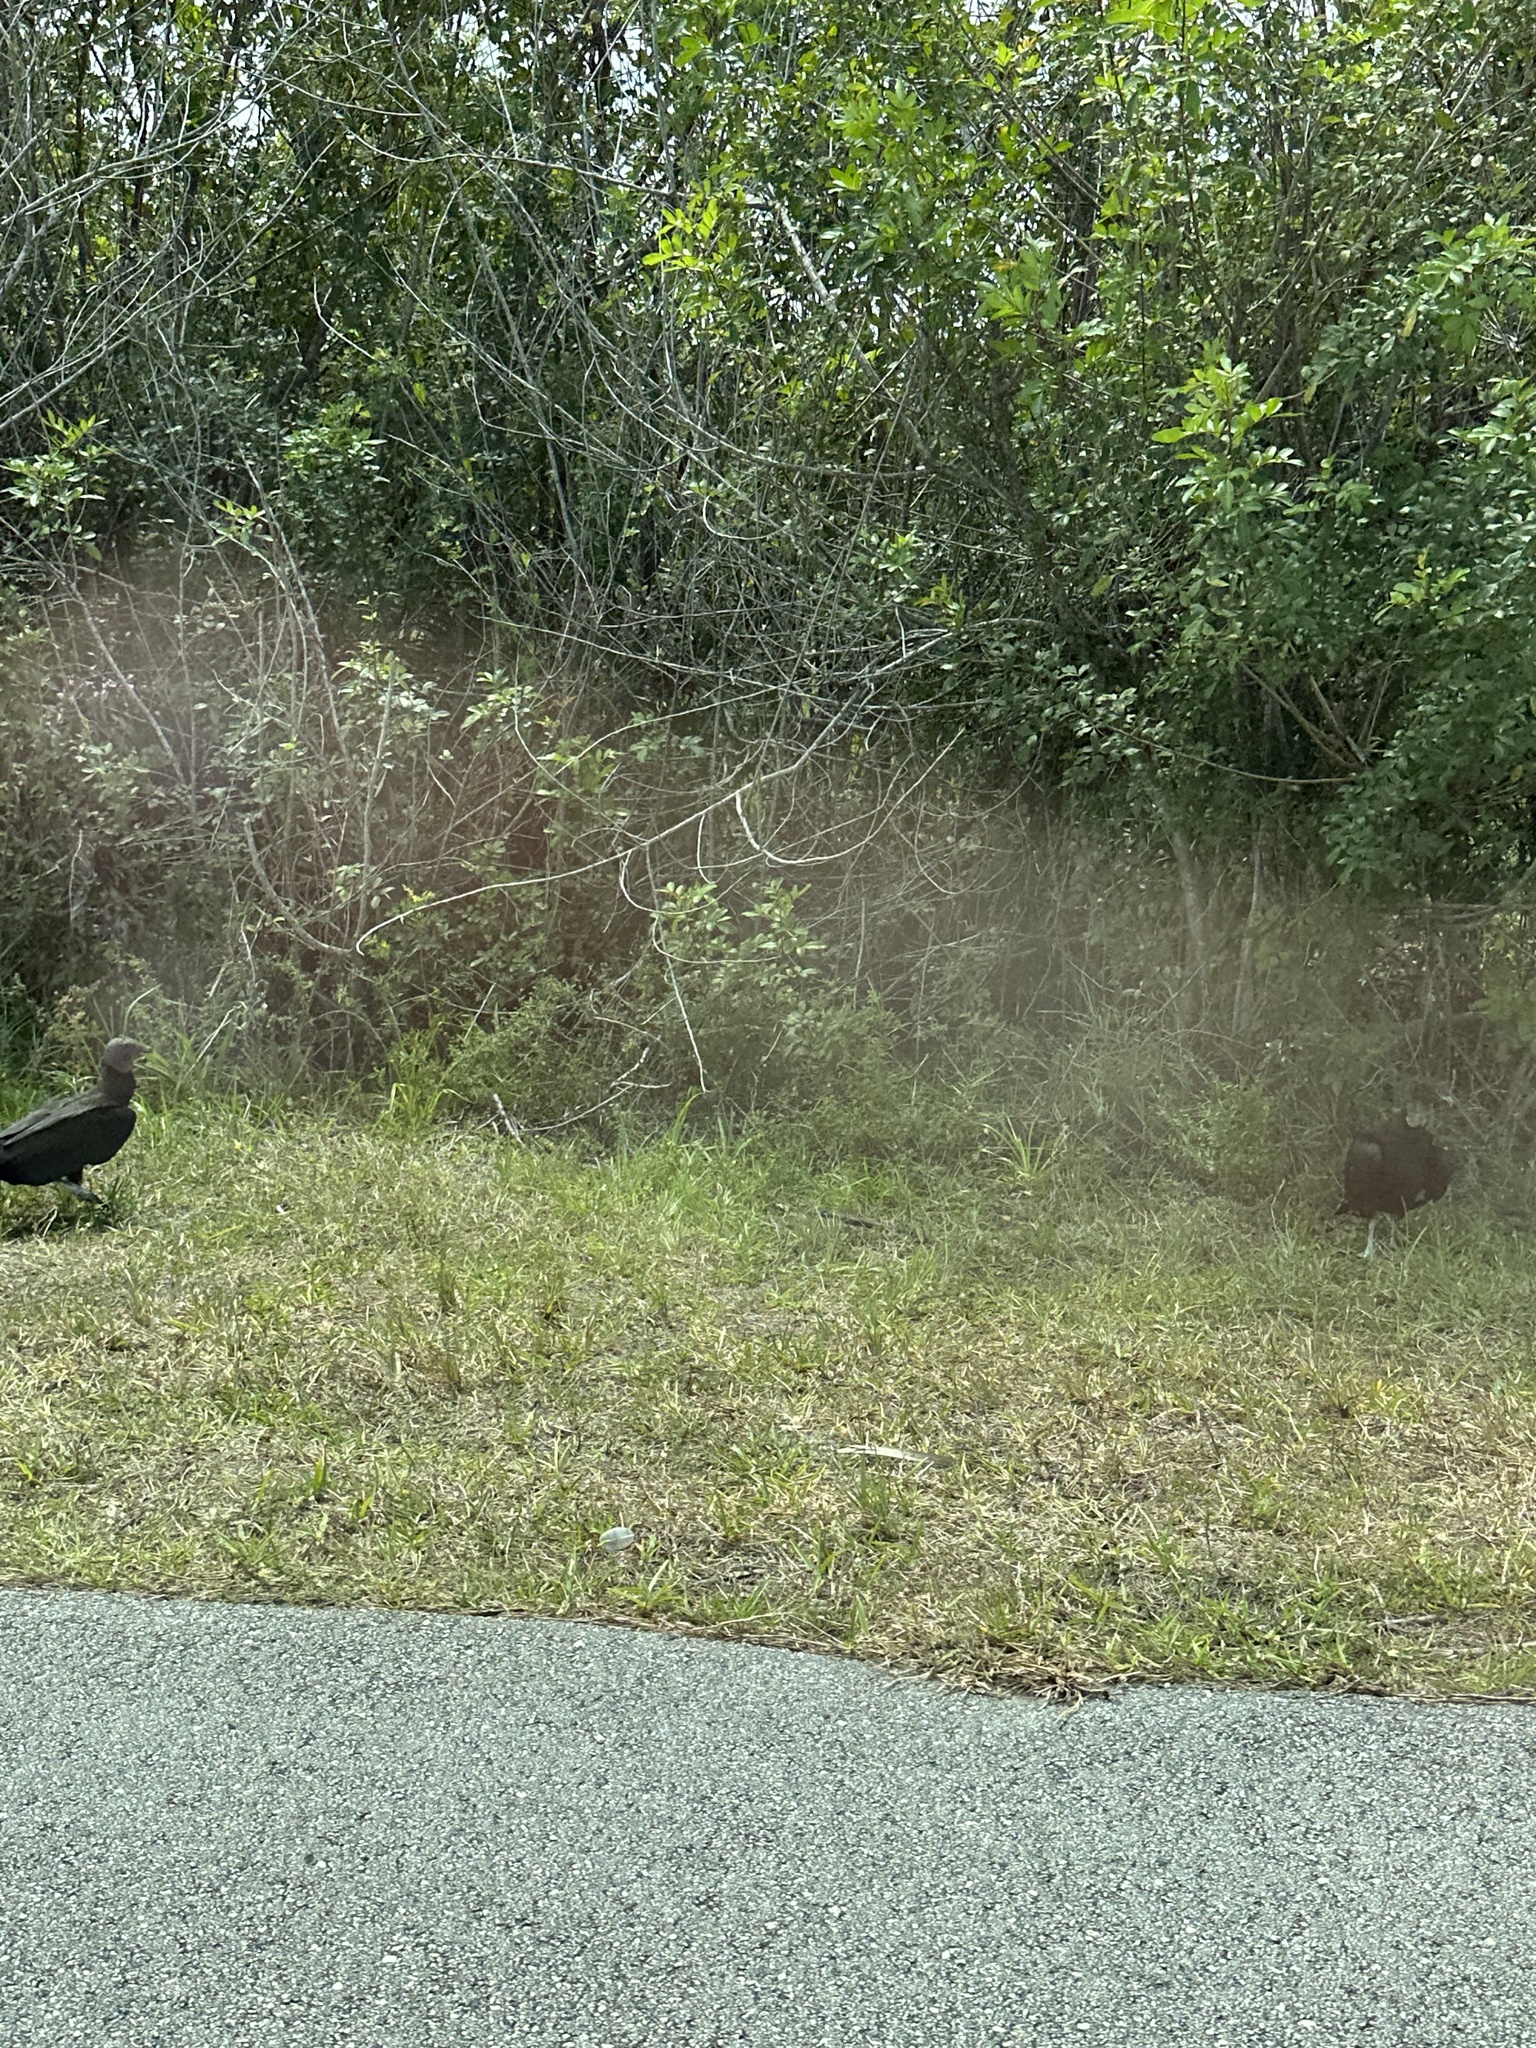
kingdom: Animalia
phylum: Chordata
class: Aves
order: Accipitriformes
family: Cathartidae
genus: Coragyps
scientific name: Coragyps atratus
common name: Black vulture
